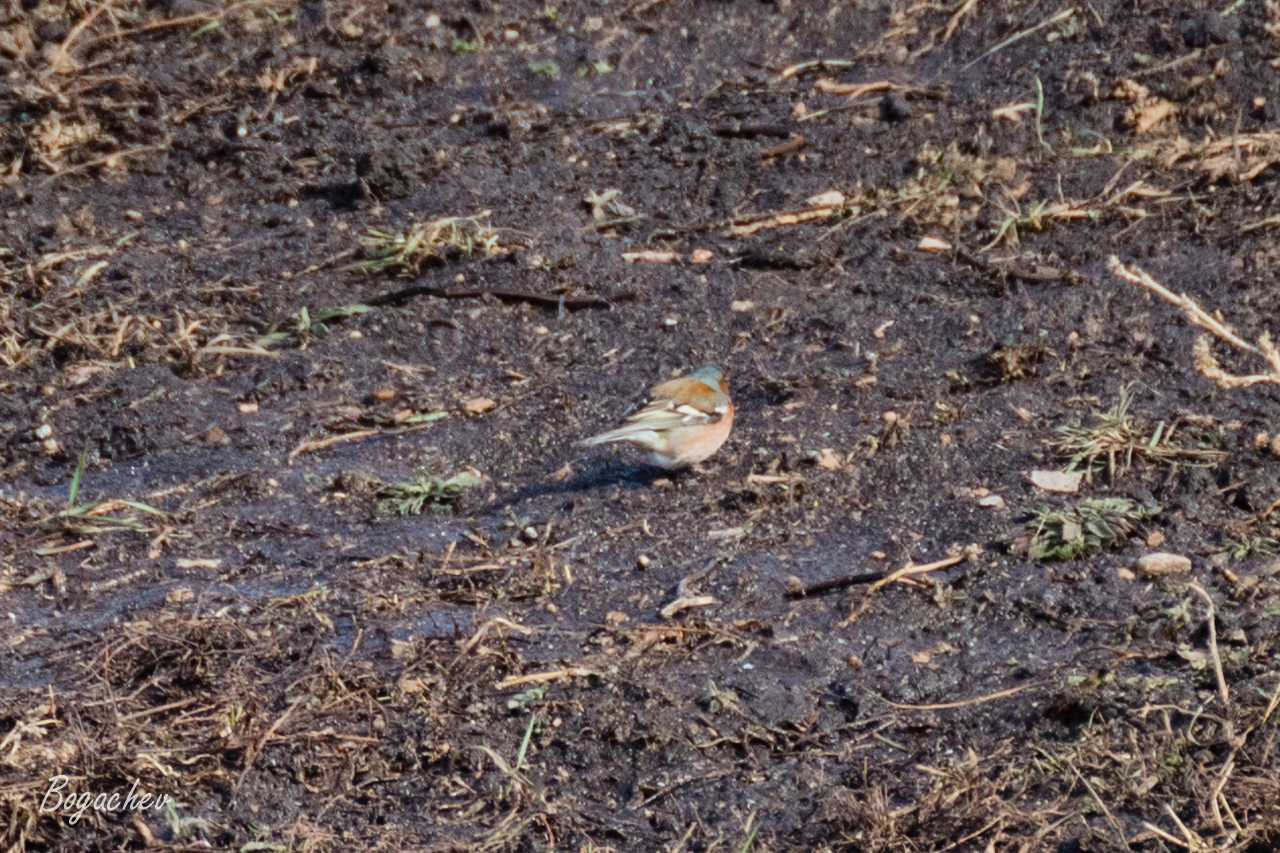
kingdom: Animalia
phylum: Chordata
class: Aves
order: Passeriformes
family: Fringillidae
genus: Fringilla
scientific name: Fringilla coelebs
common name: Common chaffinch
